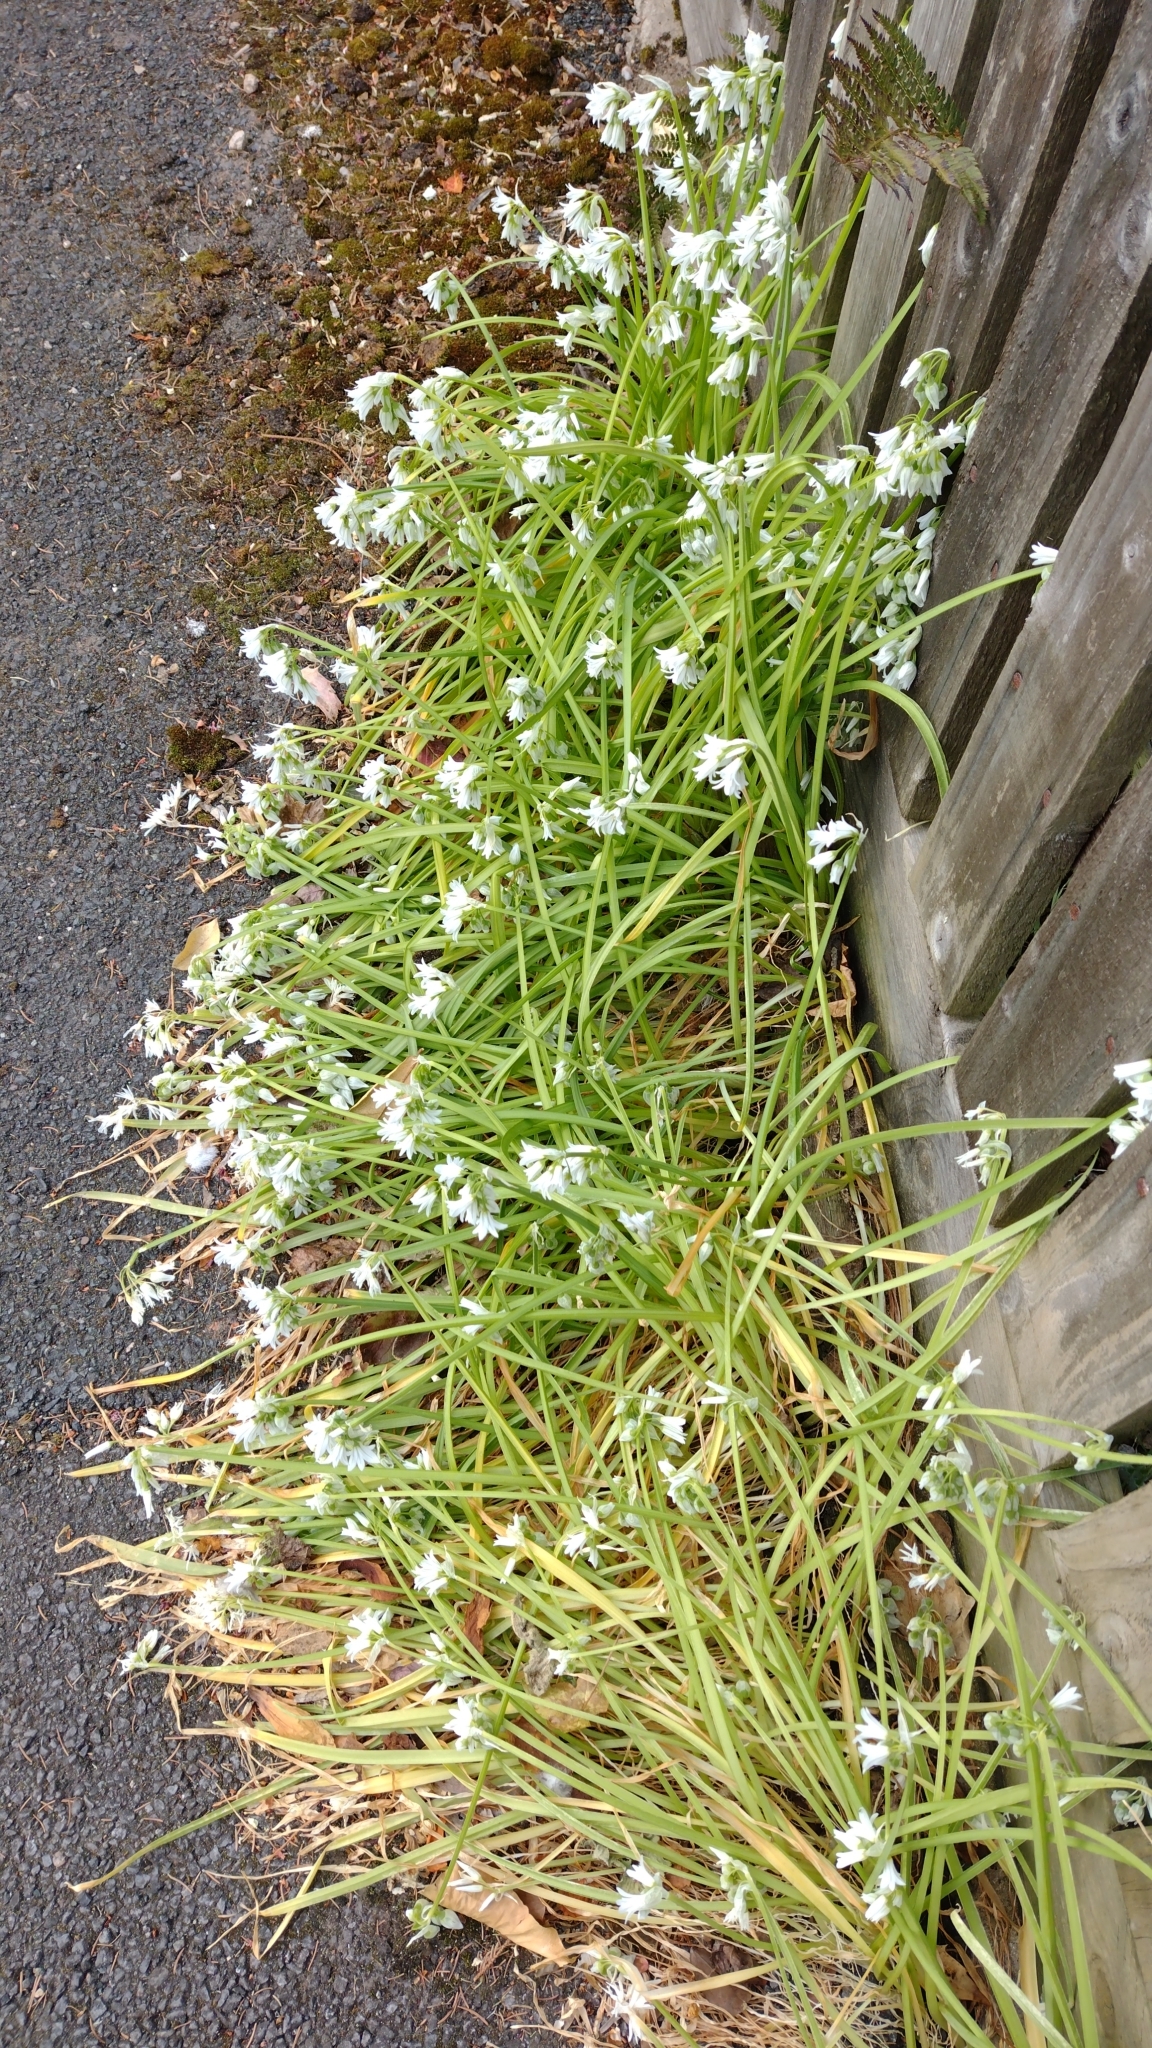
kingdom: Plantae
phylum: Tracheophyta
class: Liliopsida
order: Asparagales
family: Amaryllidaceae
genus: Allium
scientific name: Allium triquetrum
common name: Three-cornered garlic
